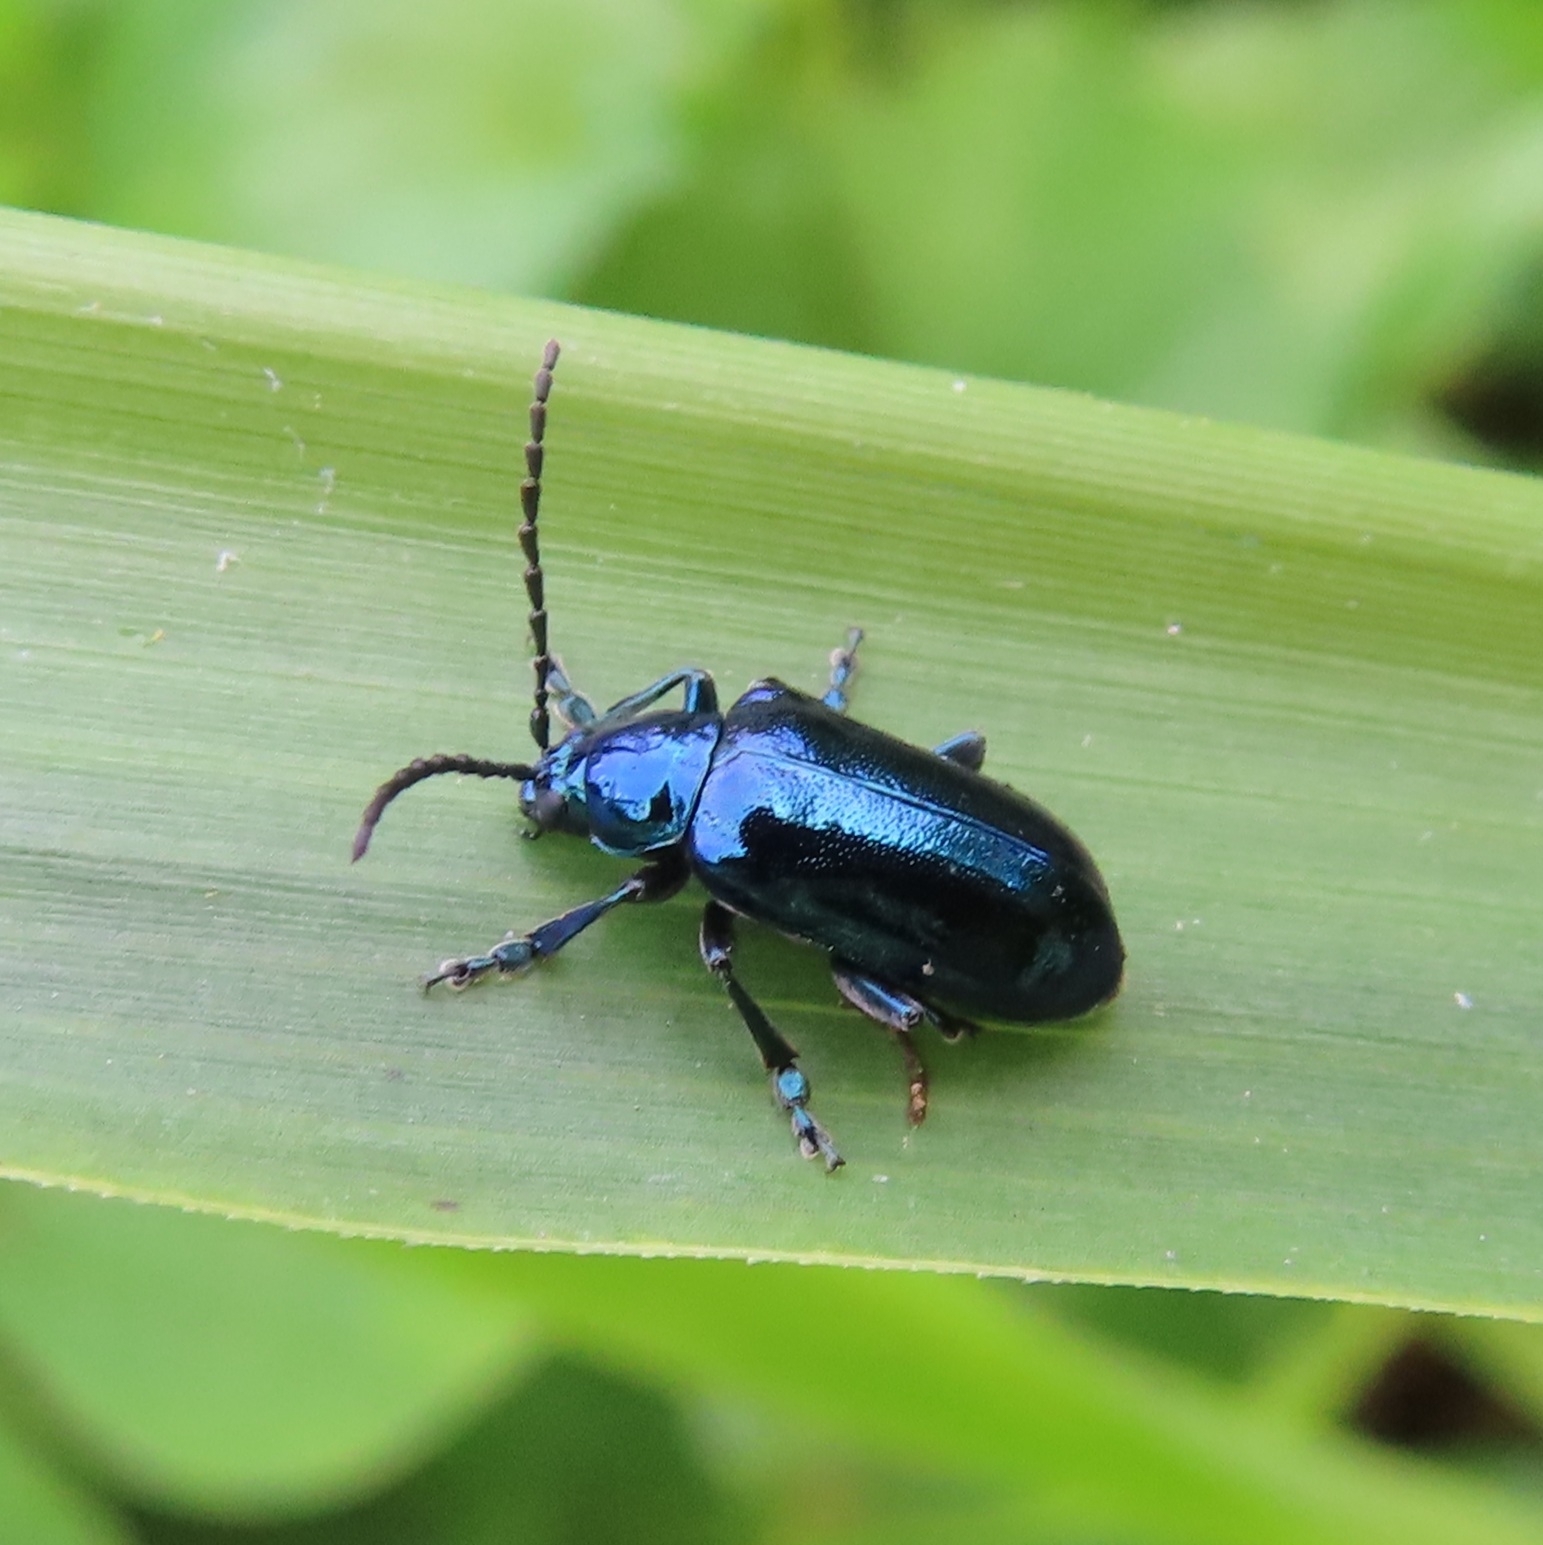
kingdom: Animalia
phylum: Arthropoda
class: Insecta
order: Coleoptera
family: Chrysomelidae
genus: Macroaltica
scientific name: Macroaltica jamaicensis
